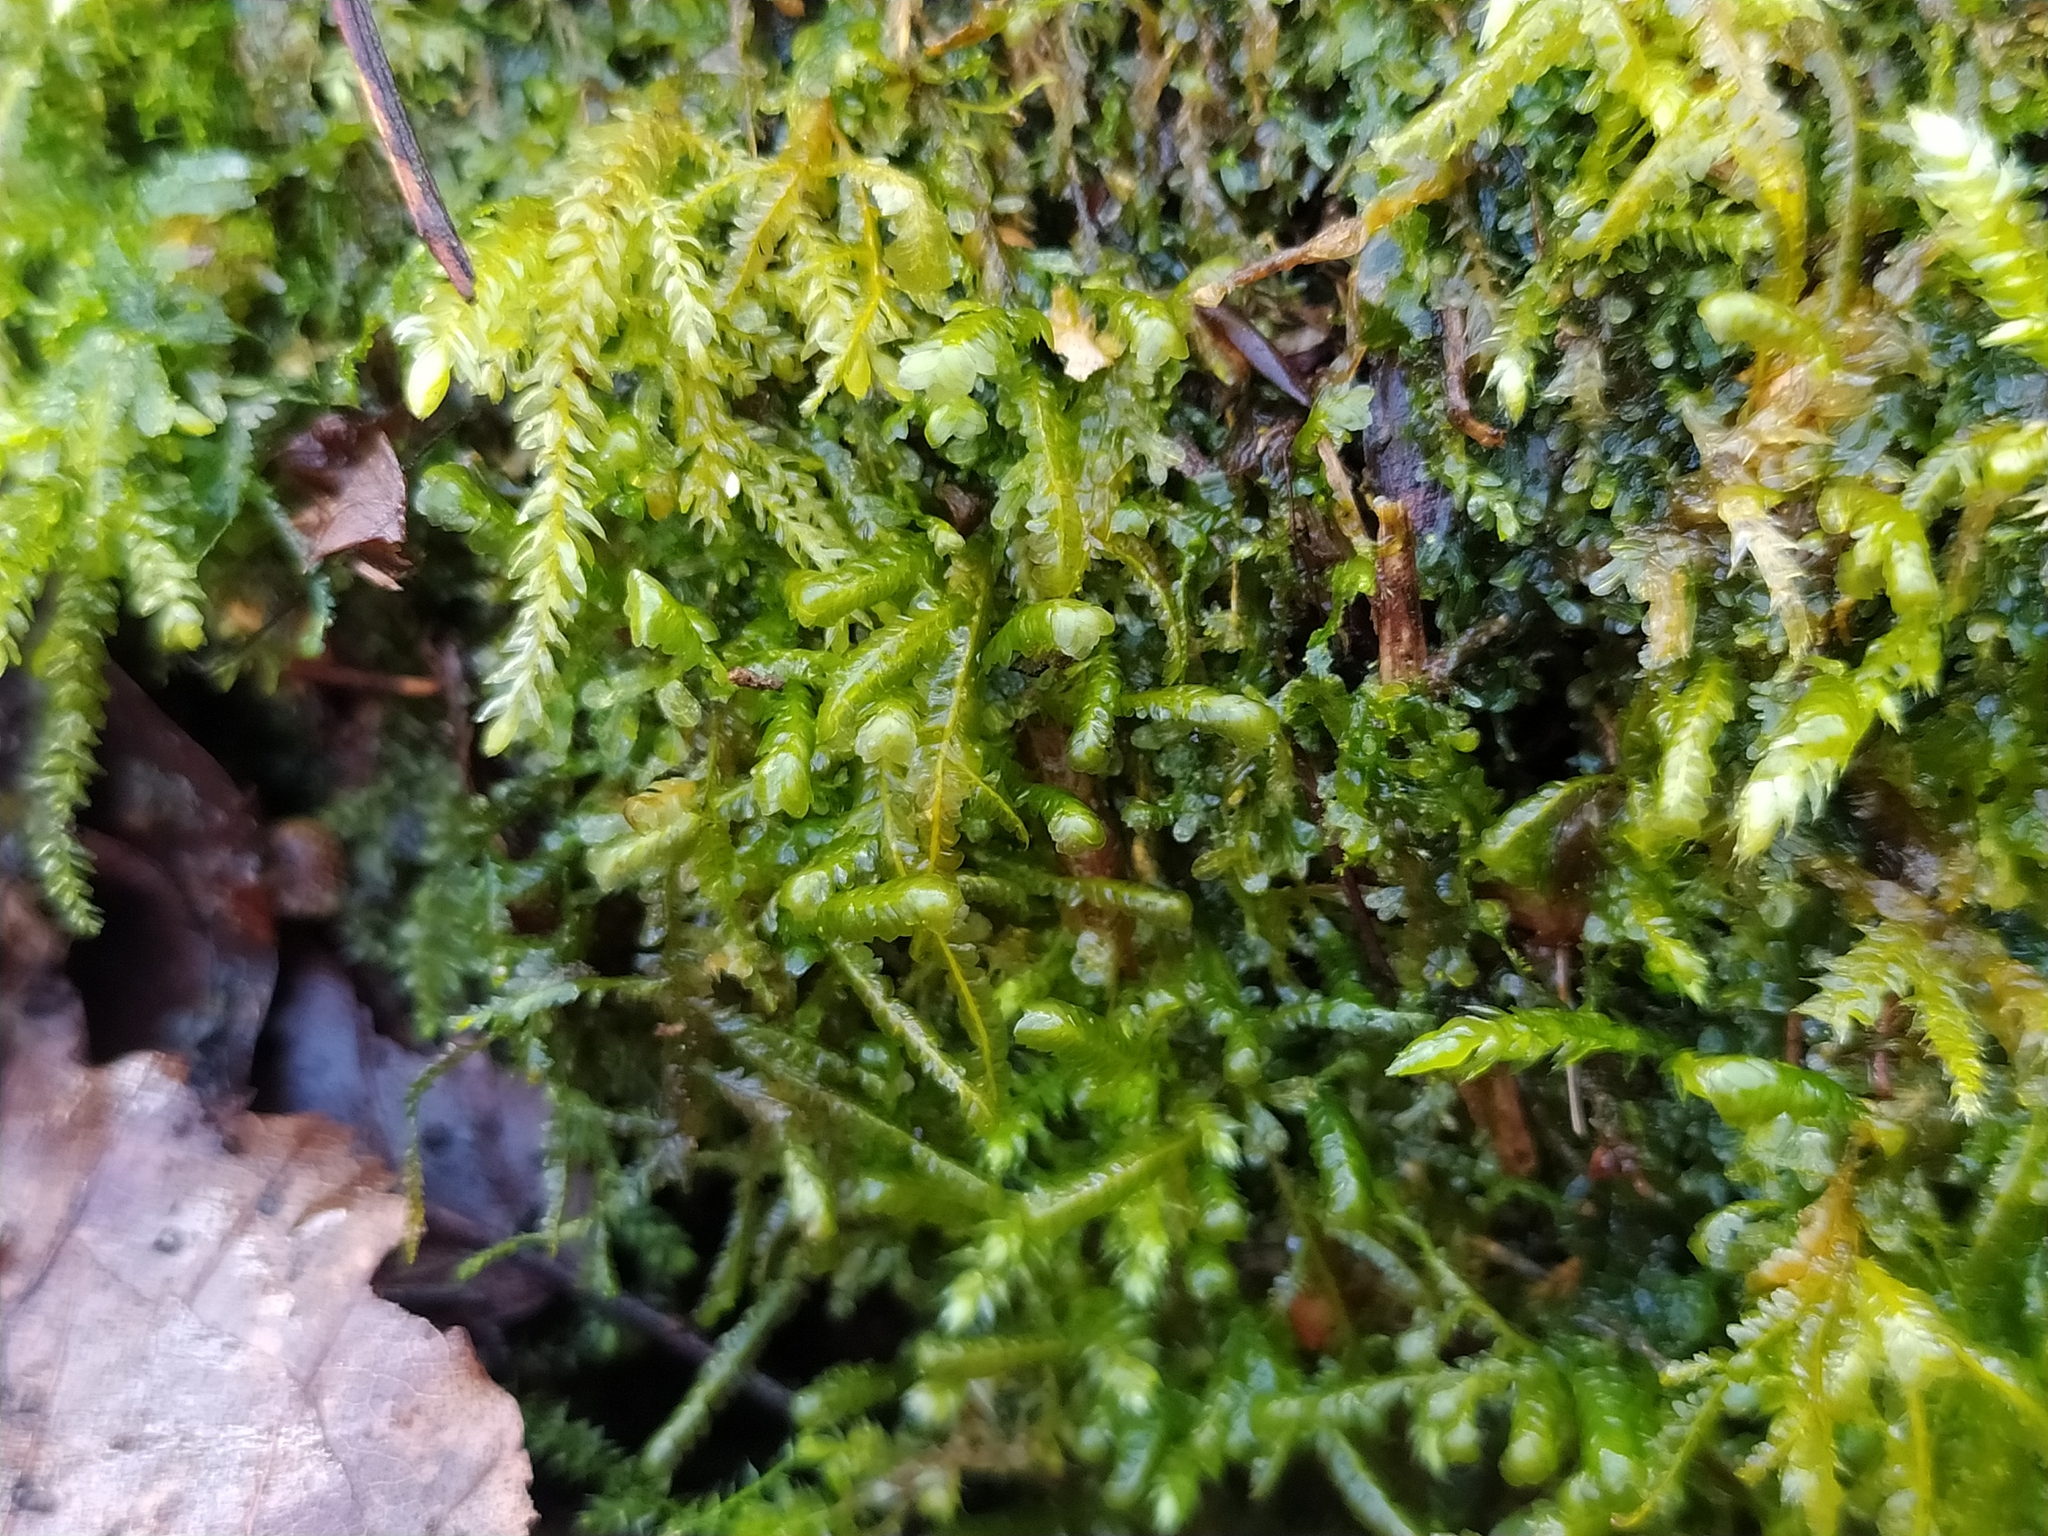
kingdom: Plantae
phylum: Bryophyta
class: Bryopsida
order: Hypnales
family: Neckeraceae
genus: Homalia
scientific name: Homalia trichomanoides
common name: Lime homalia moss
